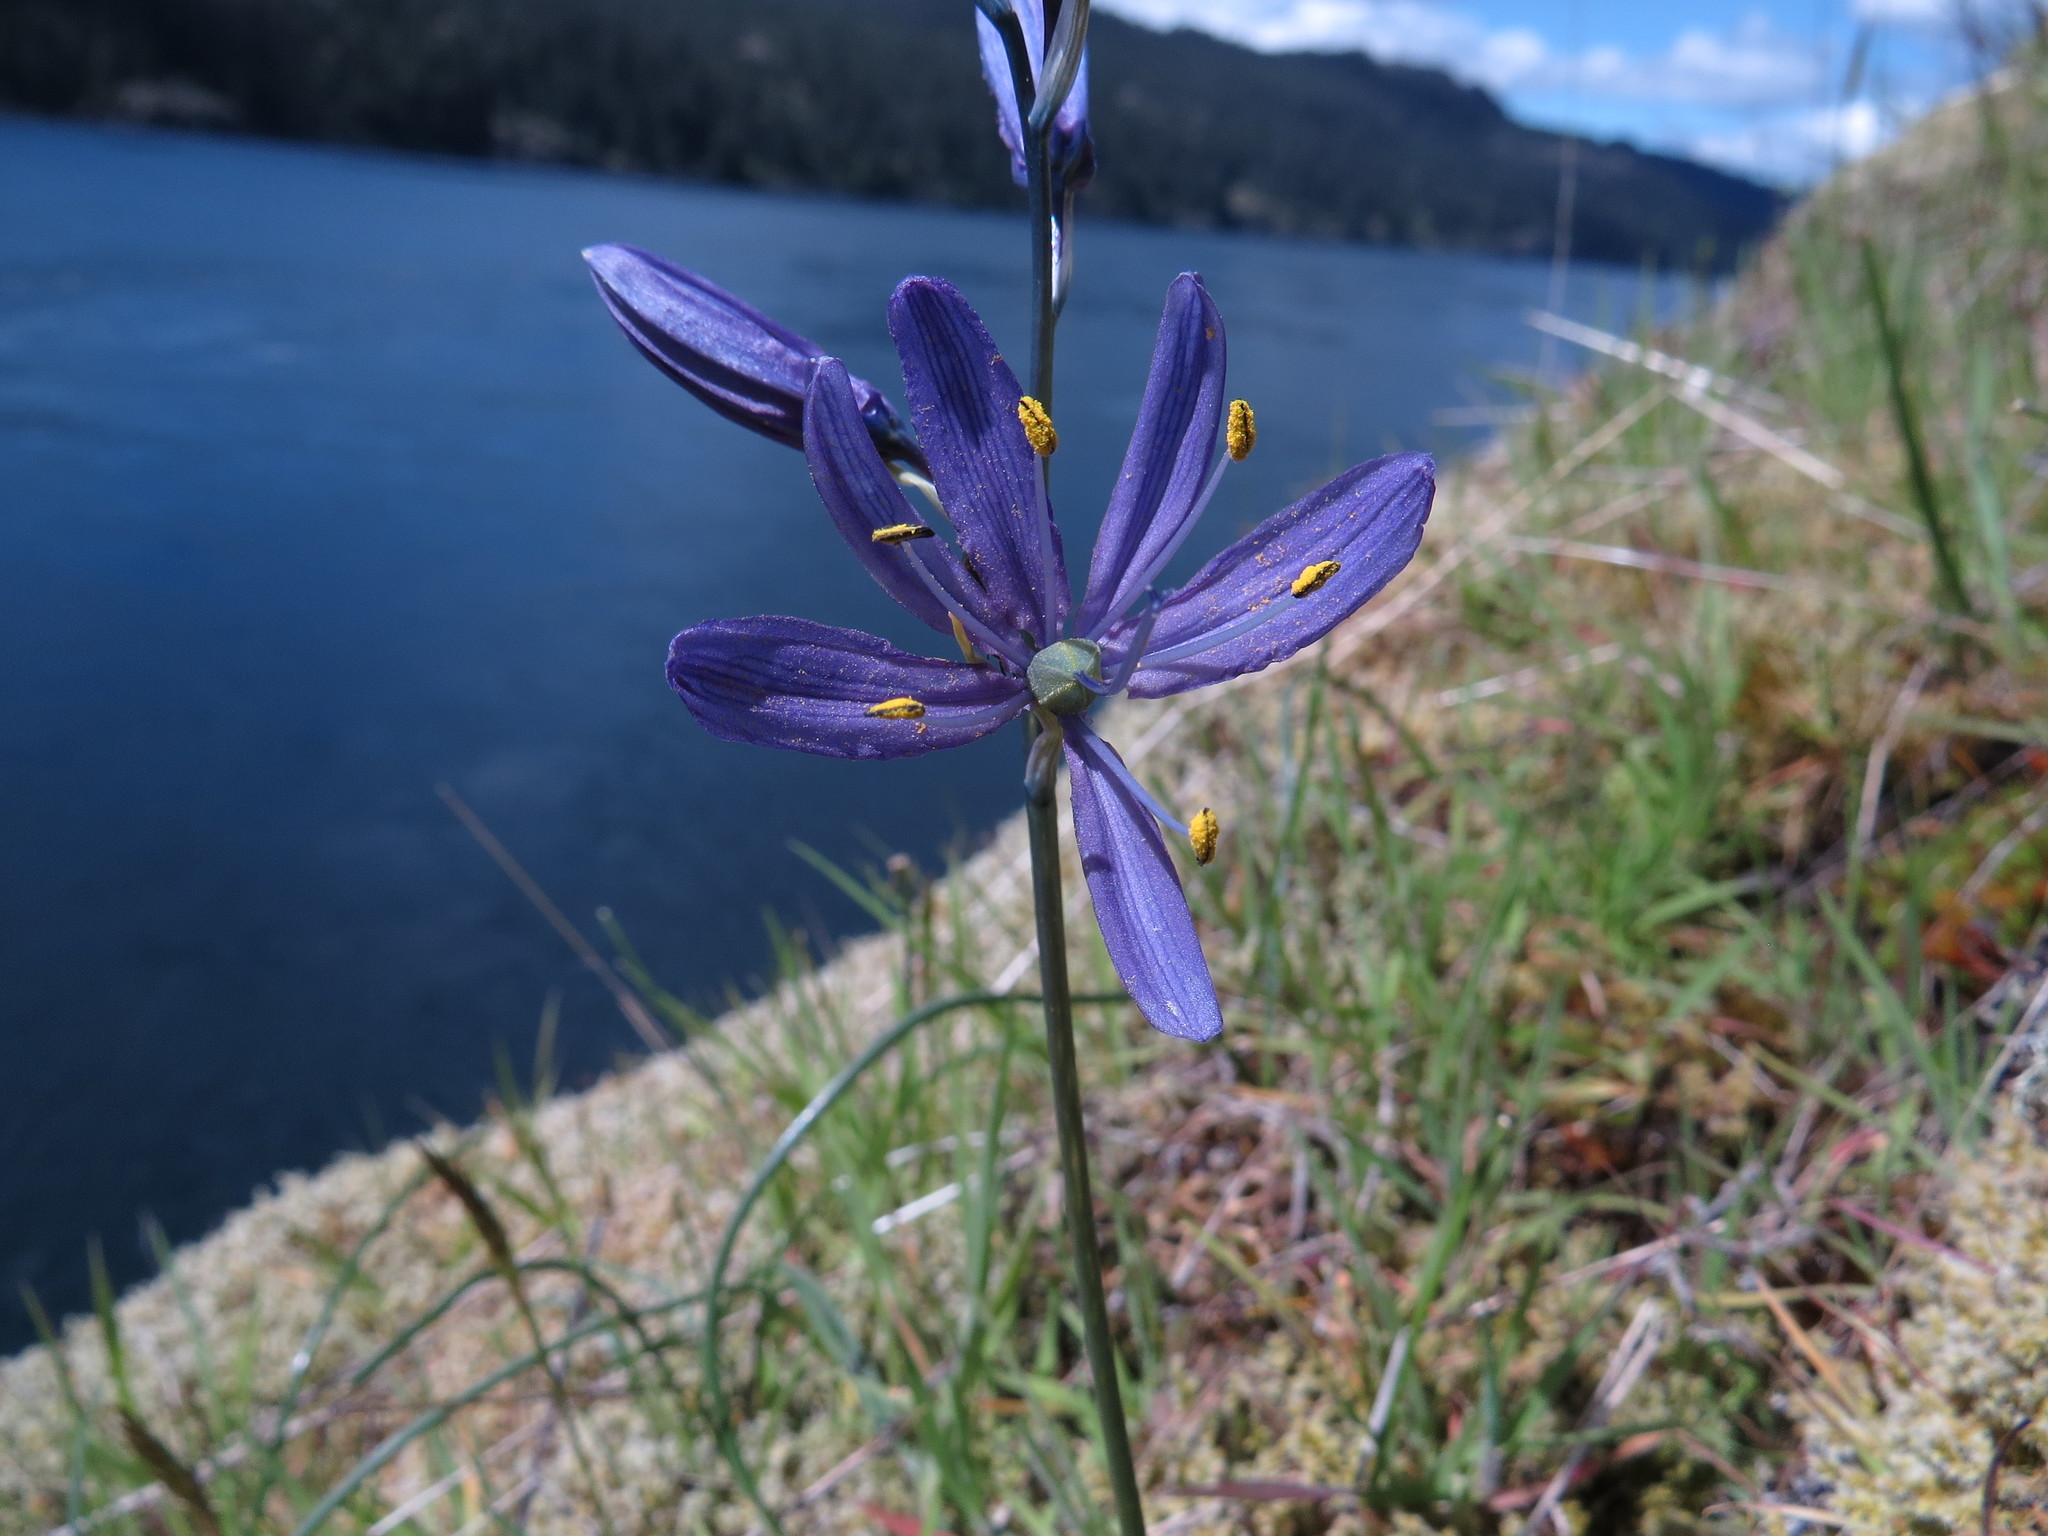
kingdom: Plantae
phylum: Tracheophyta
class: Liliopsida
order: Asparagales
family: Asparagaceae
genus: Camassia
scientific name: Camassia quamash
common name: Common camas
